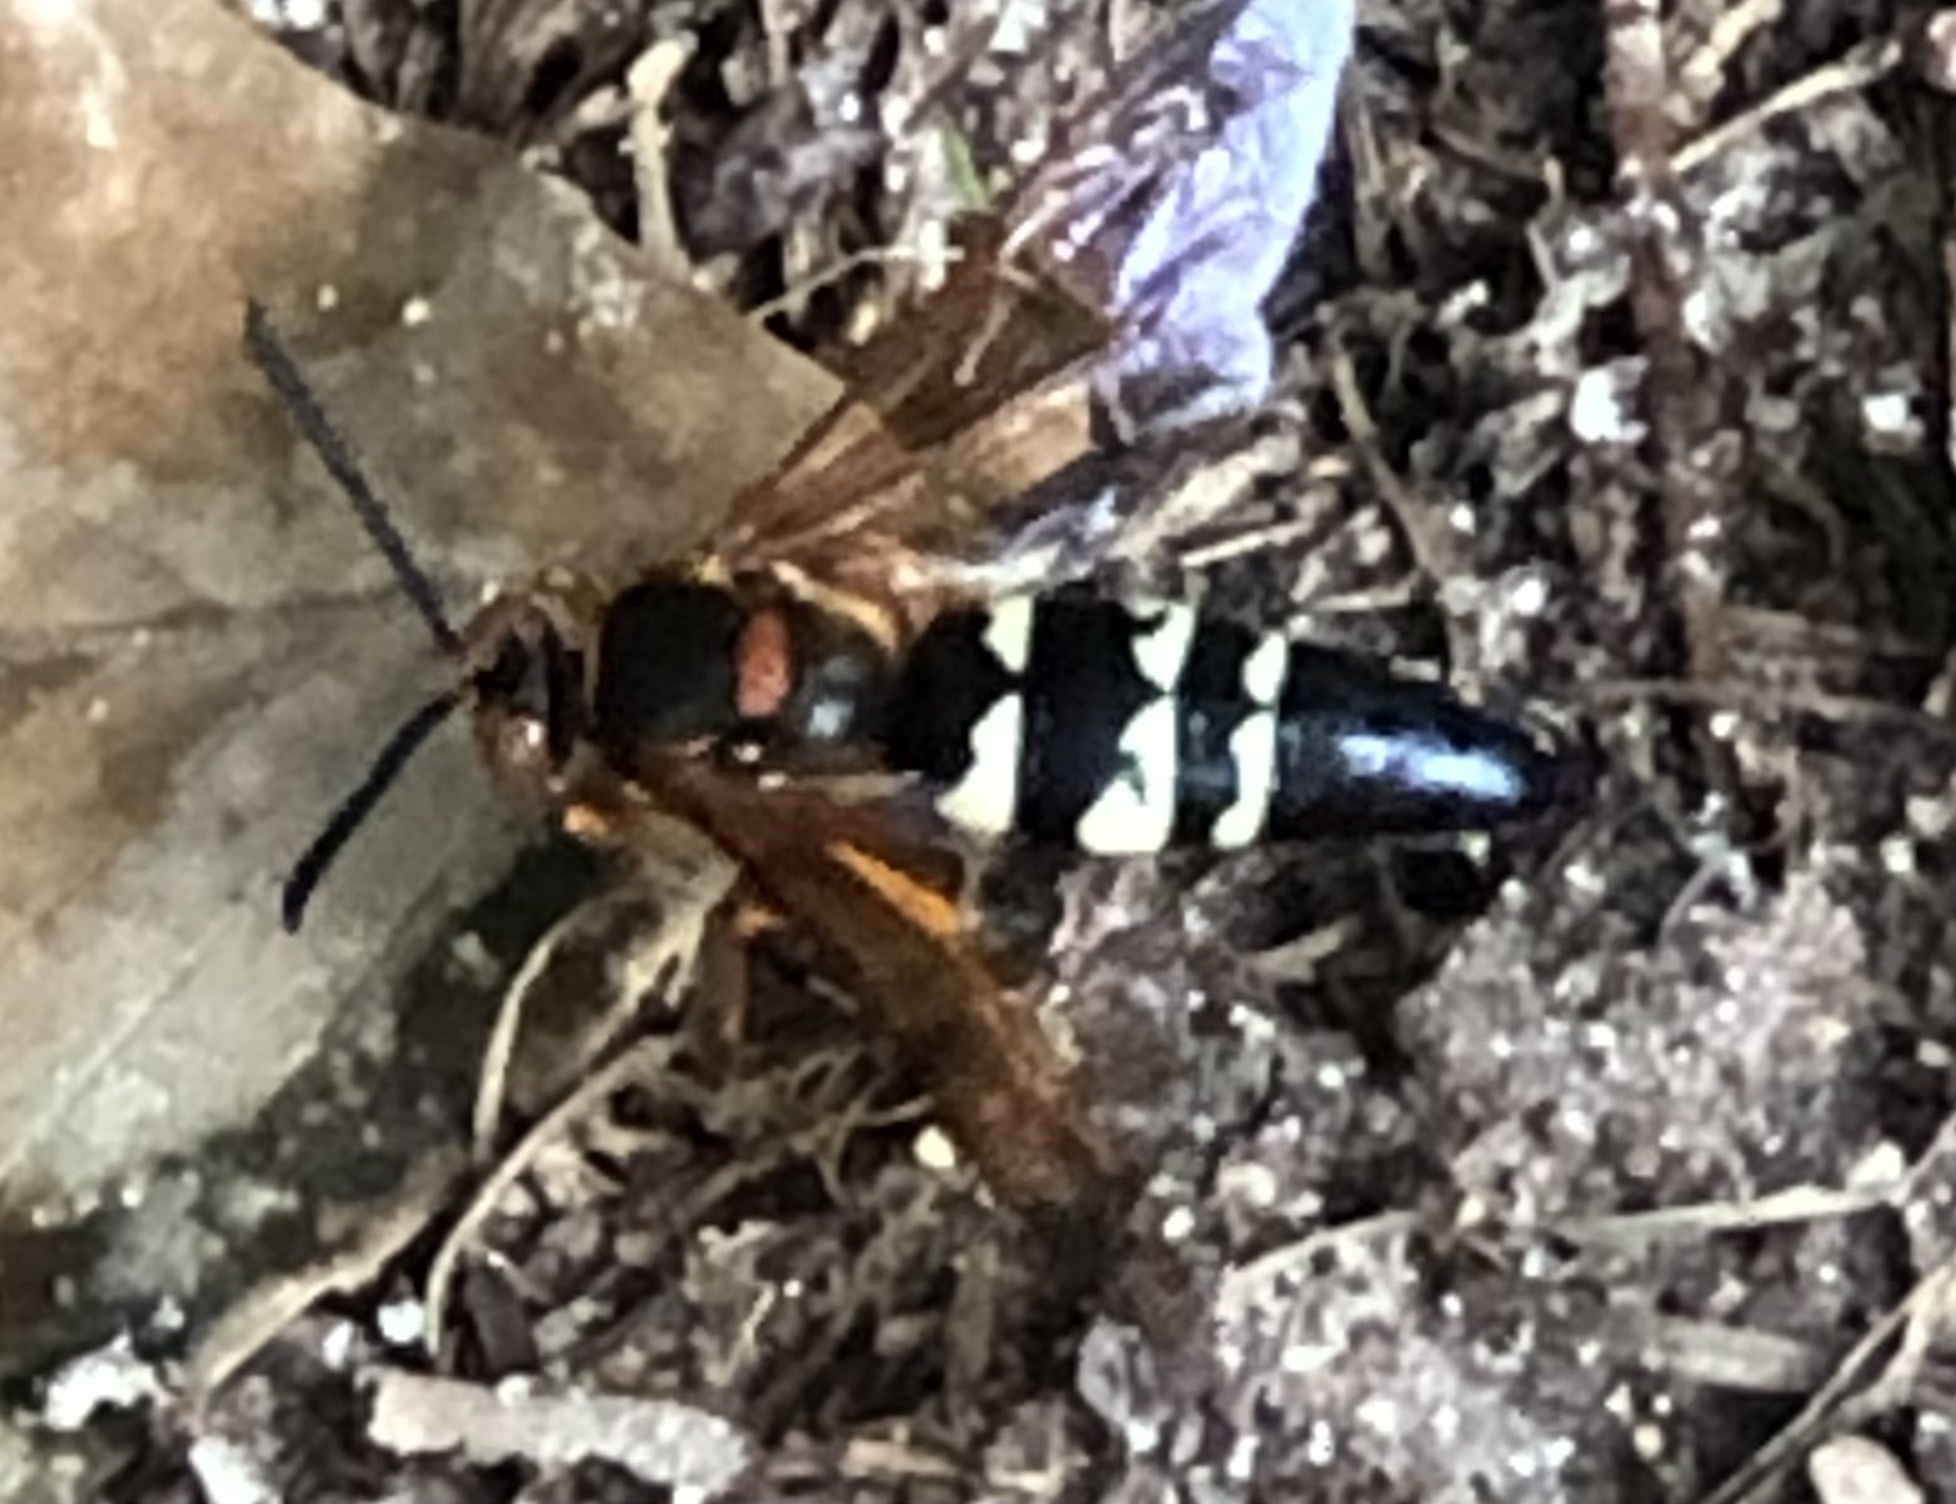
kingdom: Animalia
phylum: Arthropoda
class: Insecta
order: Hymenoptera
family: Crabronidae
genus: Sphecius
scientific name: Sphecius speciosus
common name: Cicada killer
